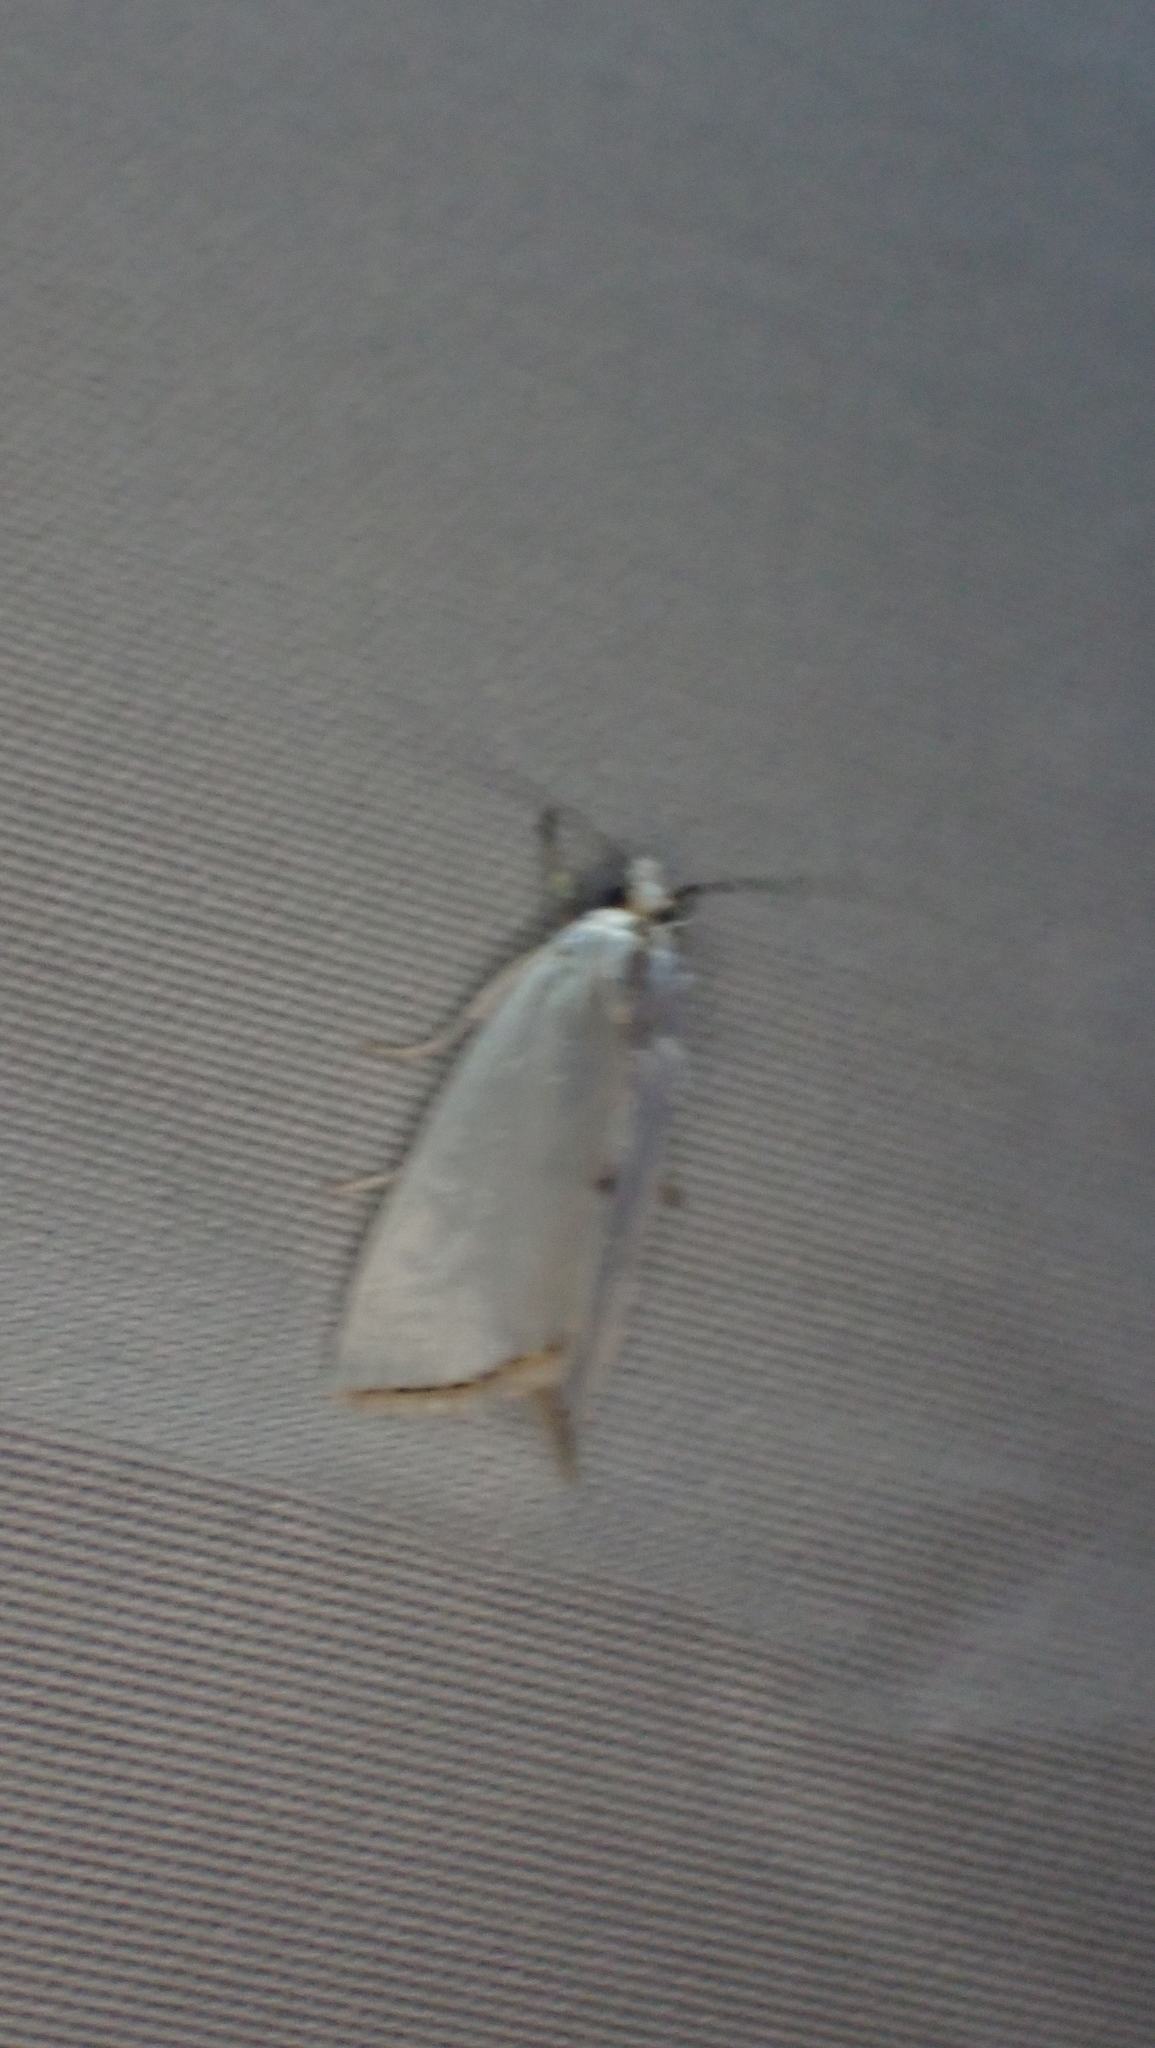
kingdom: Animalia
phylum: Arthropoda
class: Insecta
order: Lepidoptera
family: Crambidae
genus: Argyria
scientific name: Argyria nivalis
